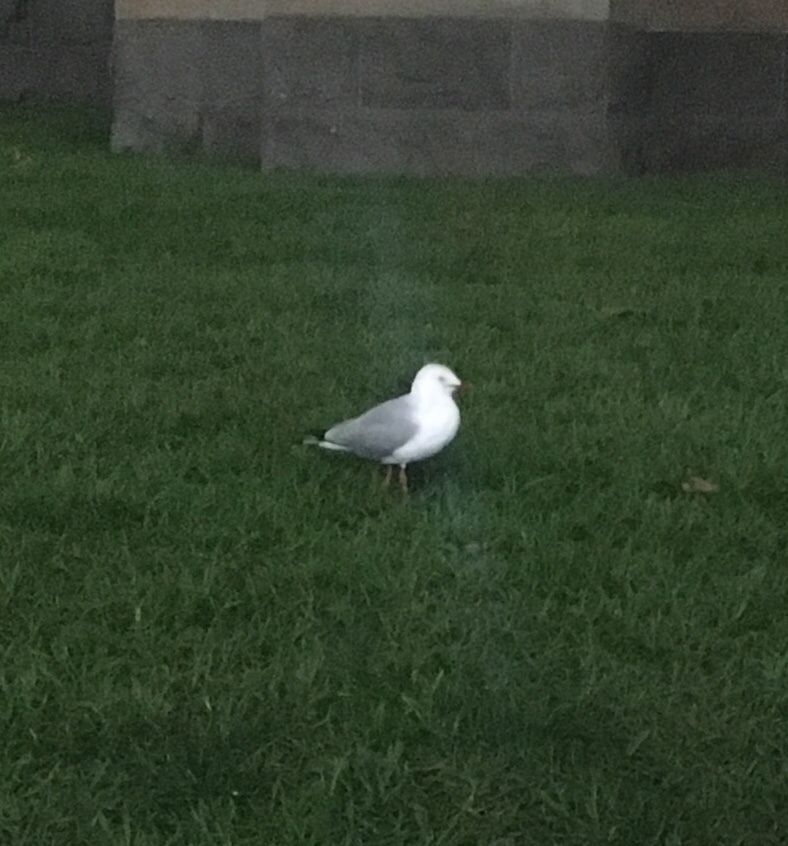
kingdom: Animalia
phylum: Chordata
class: Aves
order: Charadriiformes
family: Laridae
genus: Chroicocephalus
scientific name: Chroicocephalus novaehollandiae
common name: Silver gull
